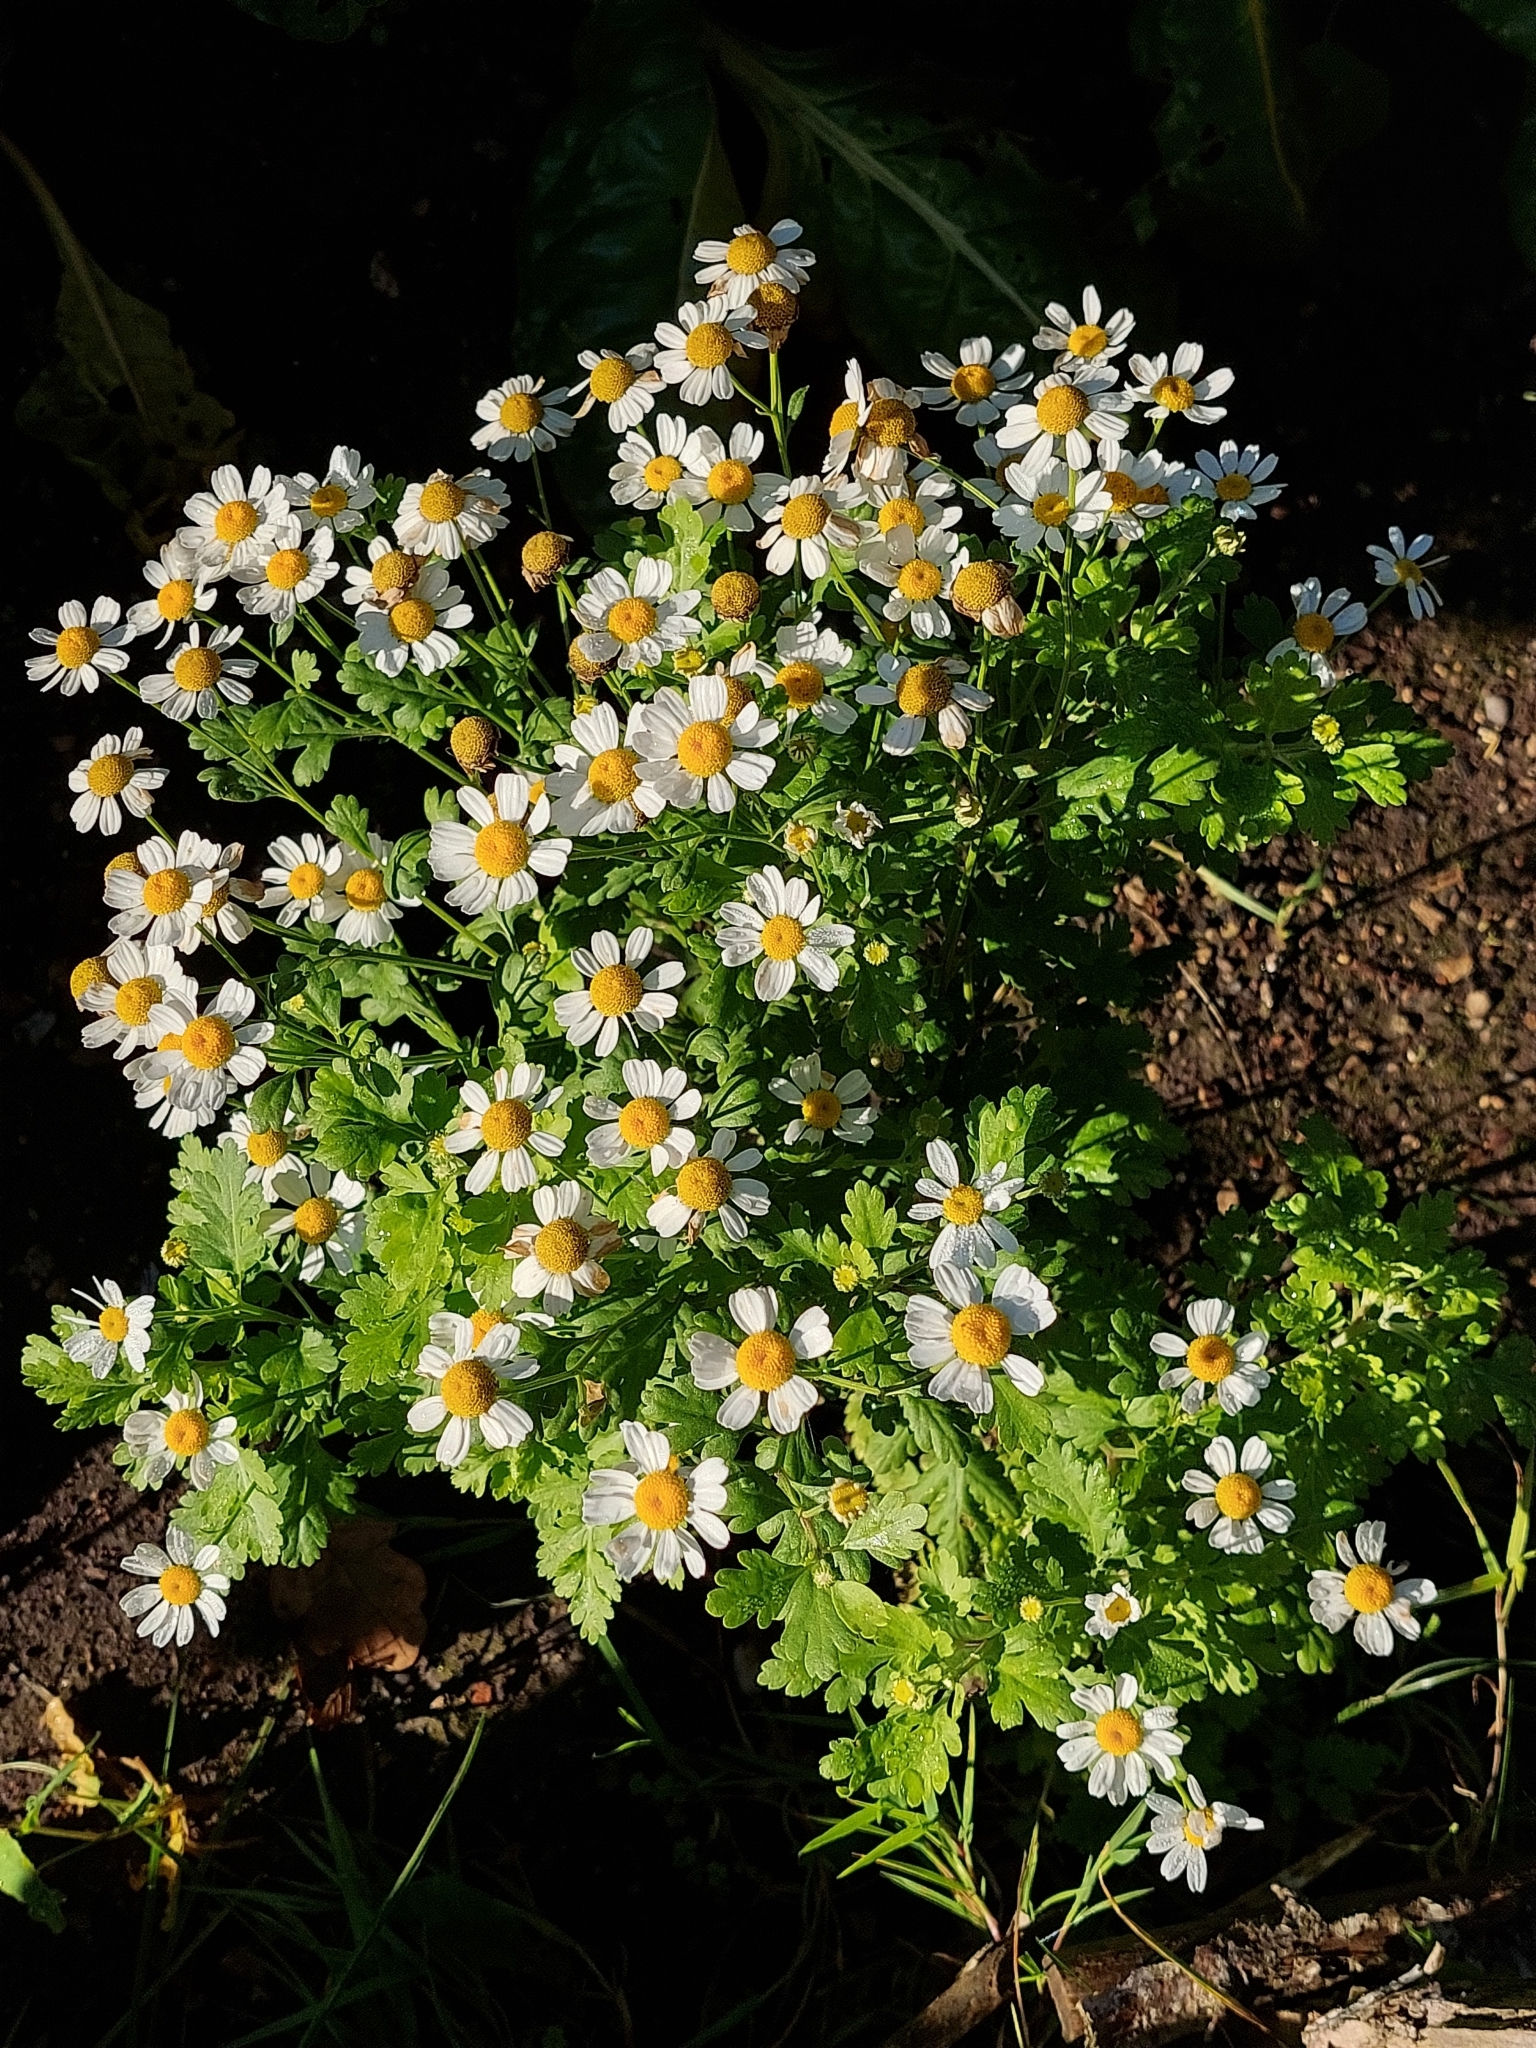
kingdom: Plantae
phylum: Tracheophyta
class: Magnoliopsida
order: Asterales
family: Asteraceae
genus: Tanacetum
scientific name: Tanacetum parthenium
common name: Feverfew
